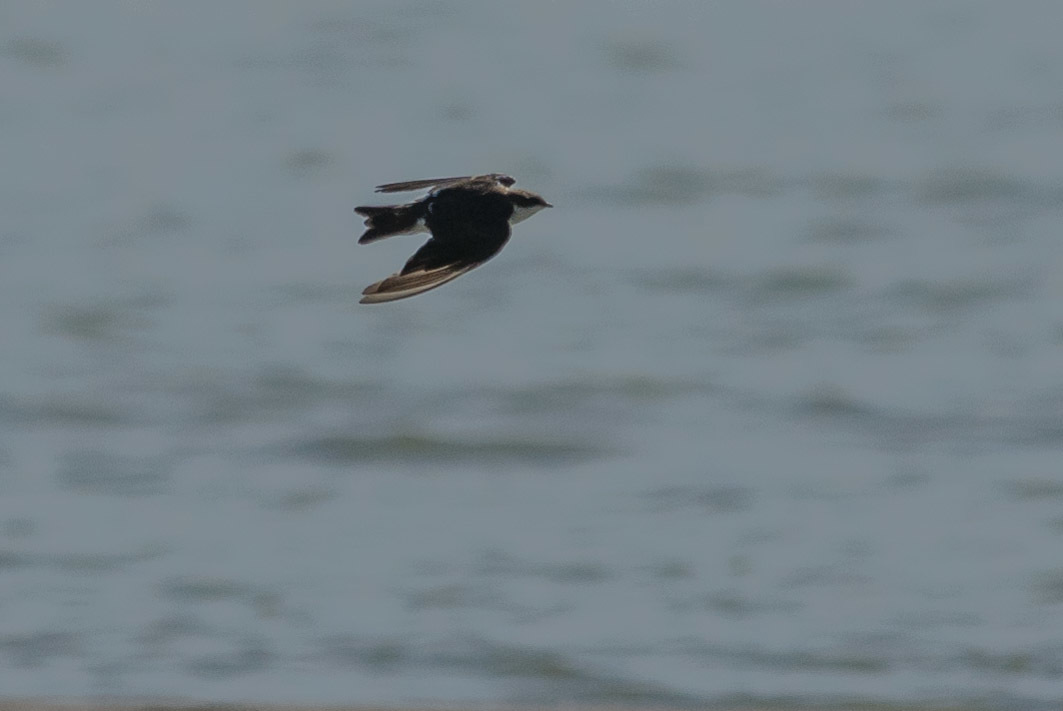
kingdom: Animalia
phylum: Chordata
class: Aves
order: Passeriformes
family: Hirundinidae
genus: Tachycineta
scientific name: Tachycineta bicolor
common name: Tree swallow
